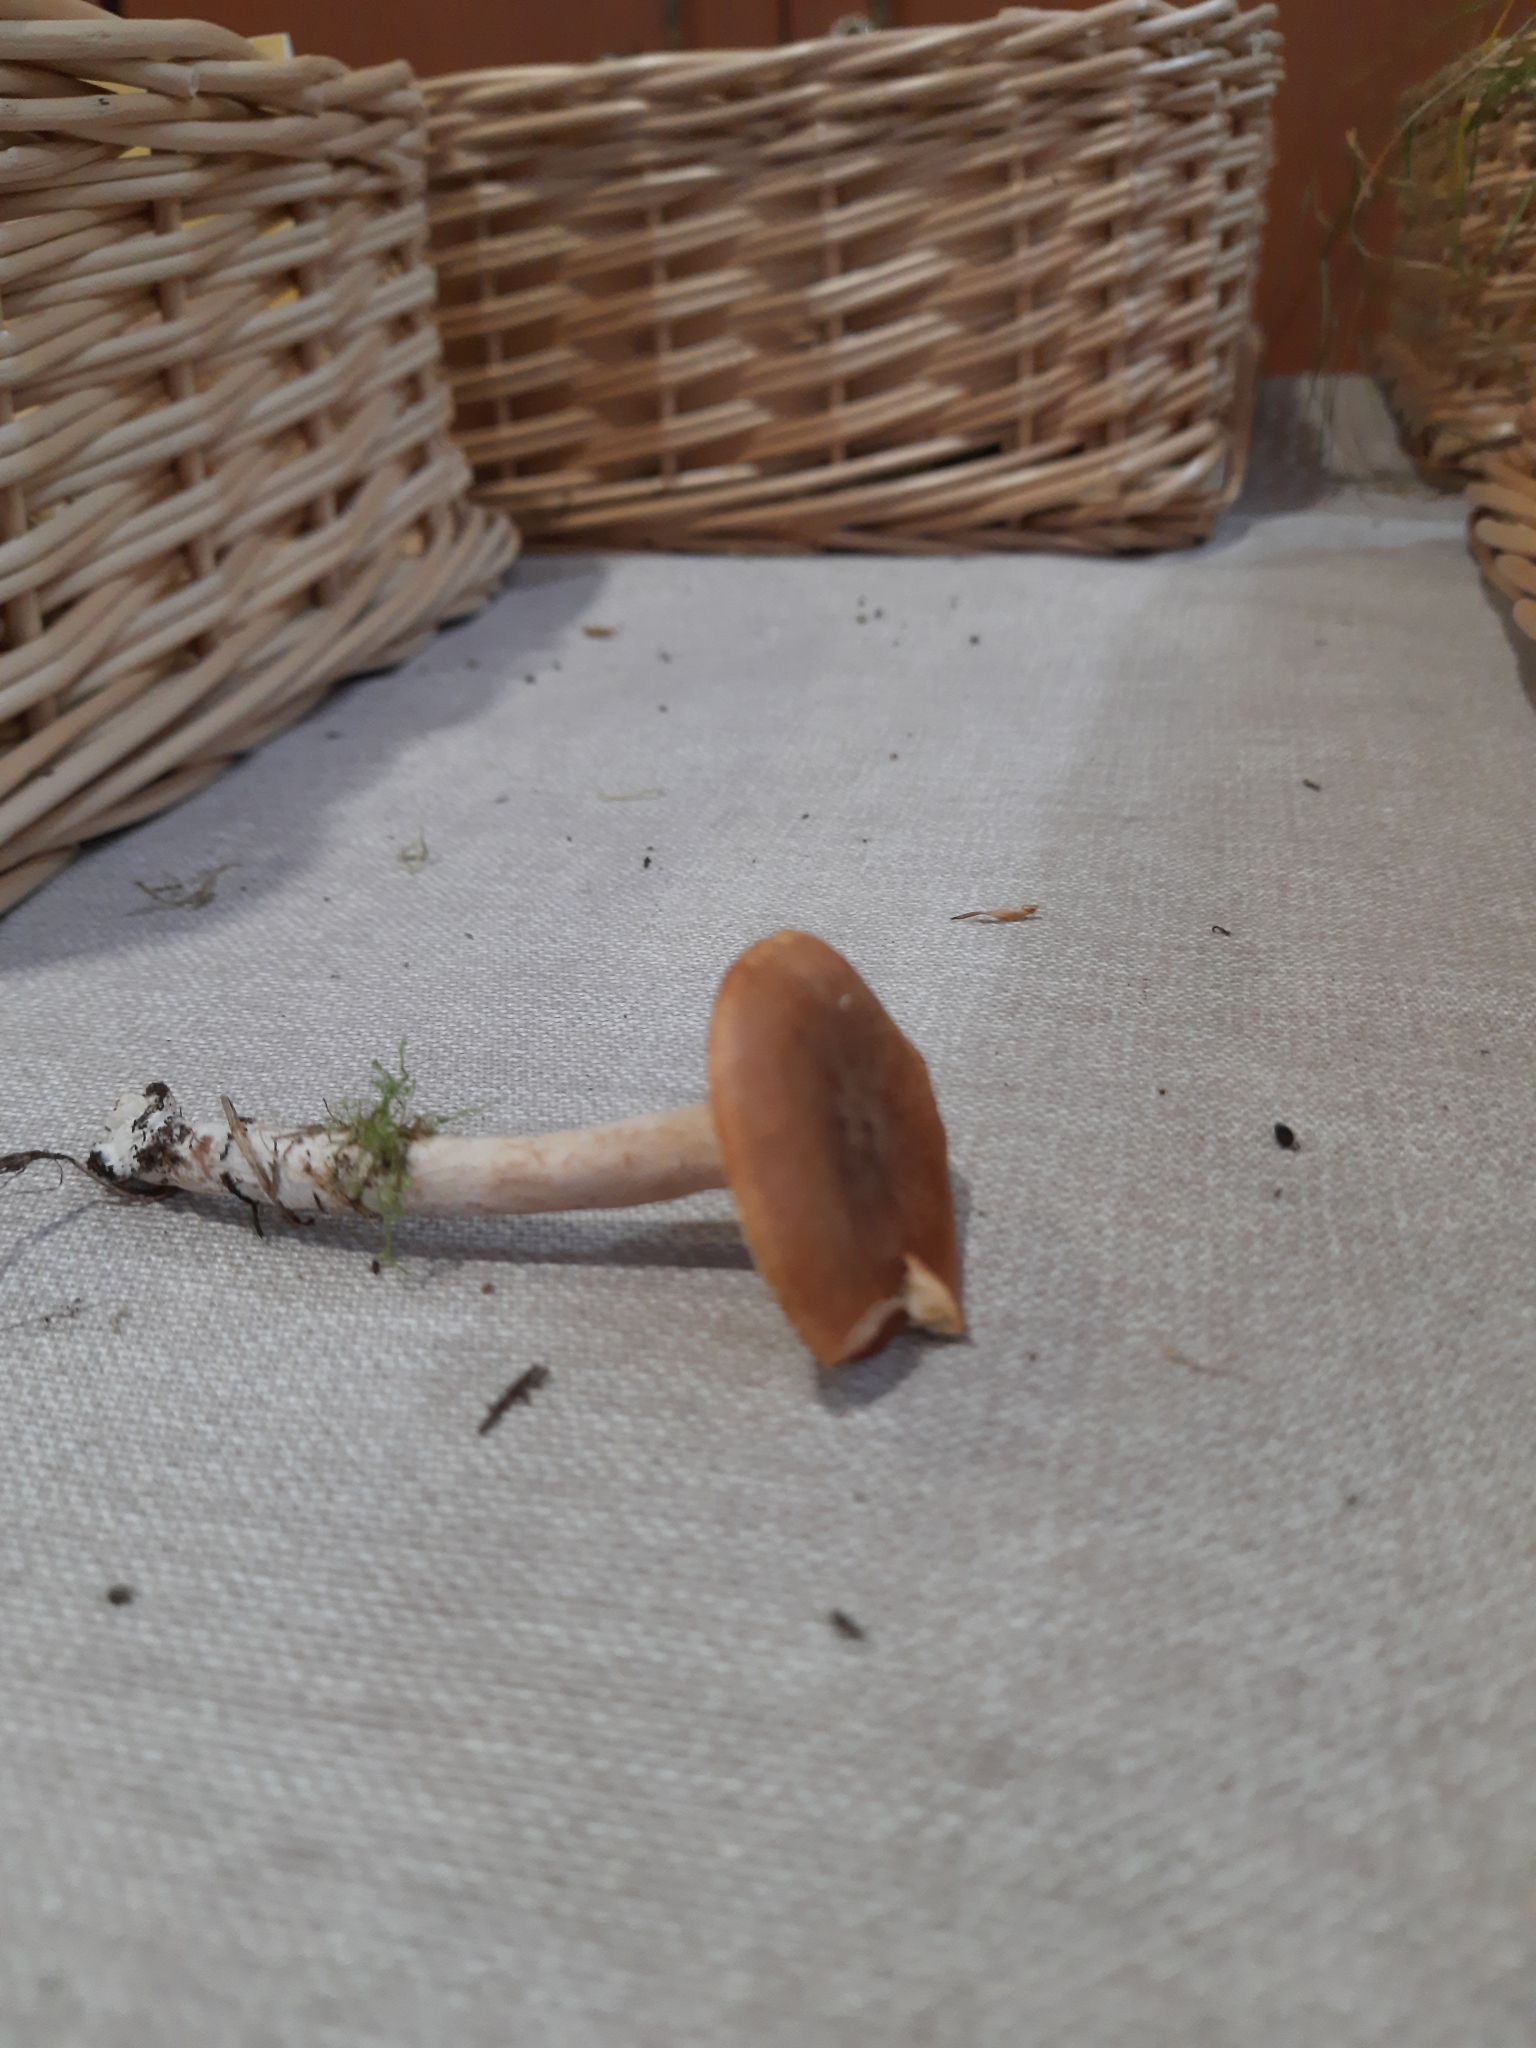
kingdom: Fungi
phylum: Basidiomycota
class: Agaricomycetes
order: Russulales
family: Russulaceae
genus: Lactarius
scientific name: Lactarius rufus
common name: Rufous milk-cap
